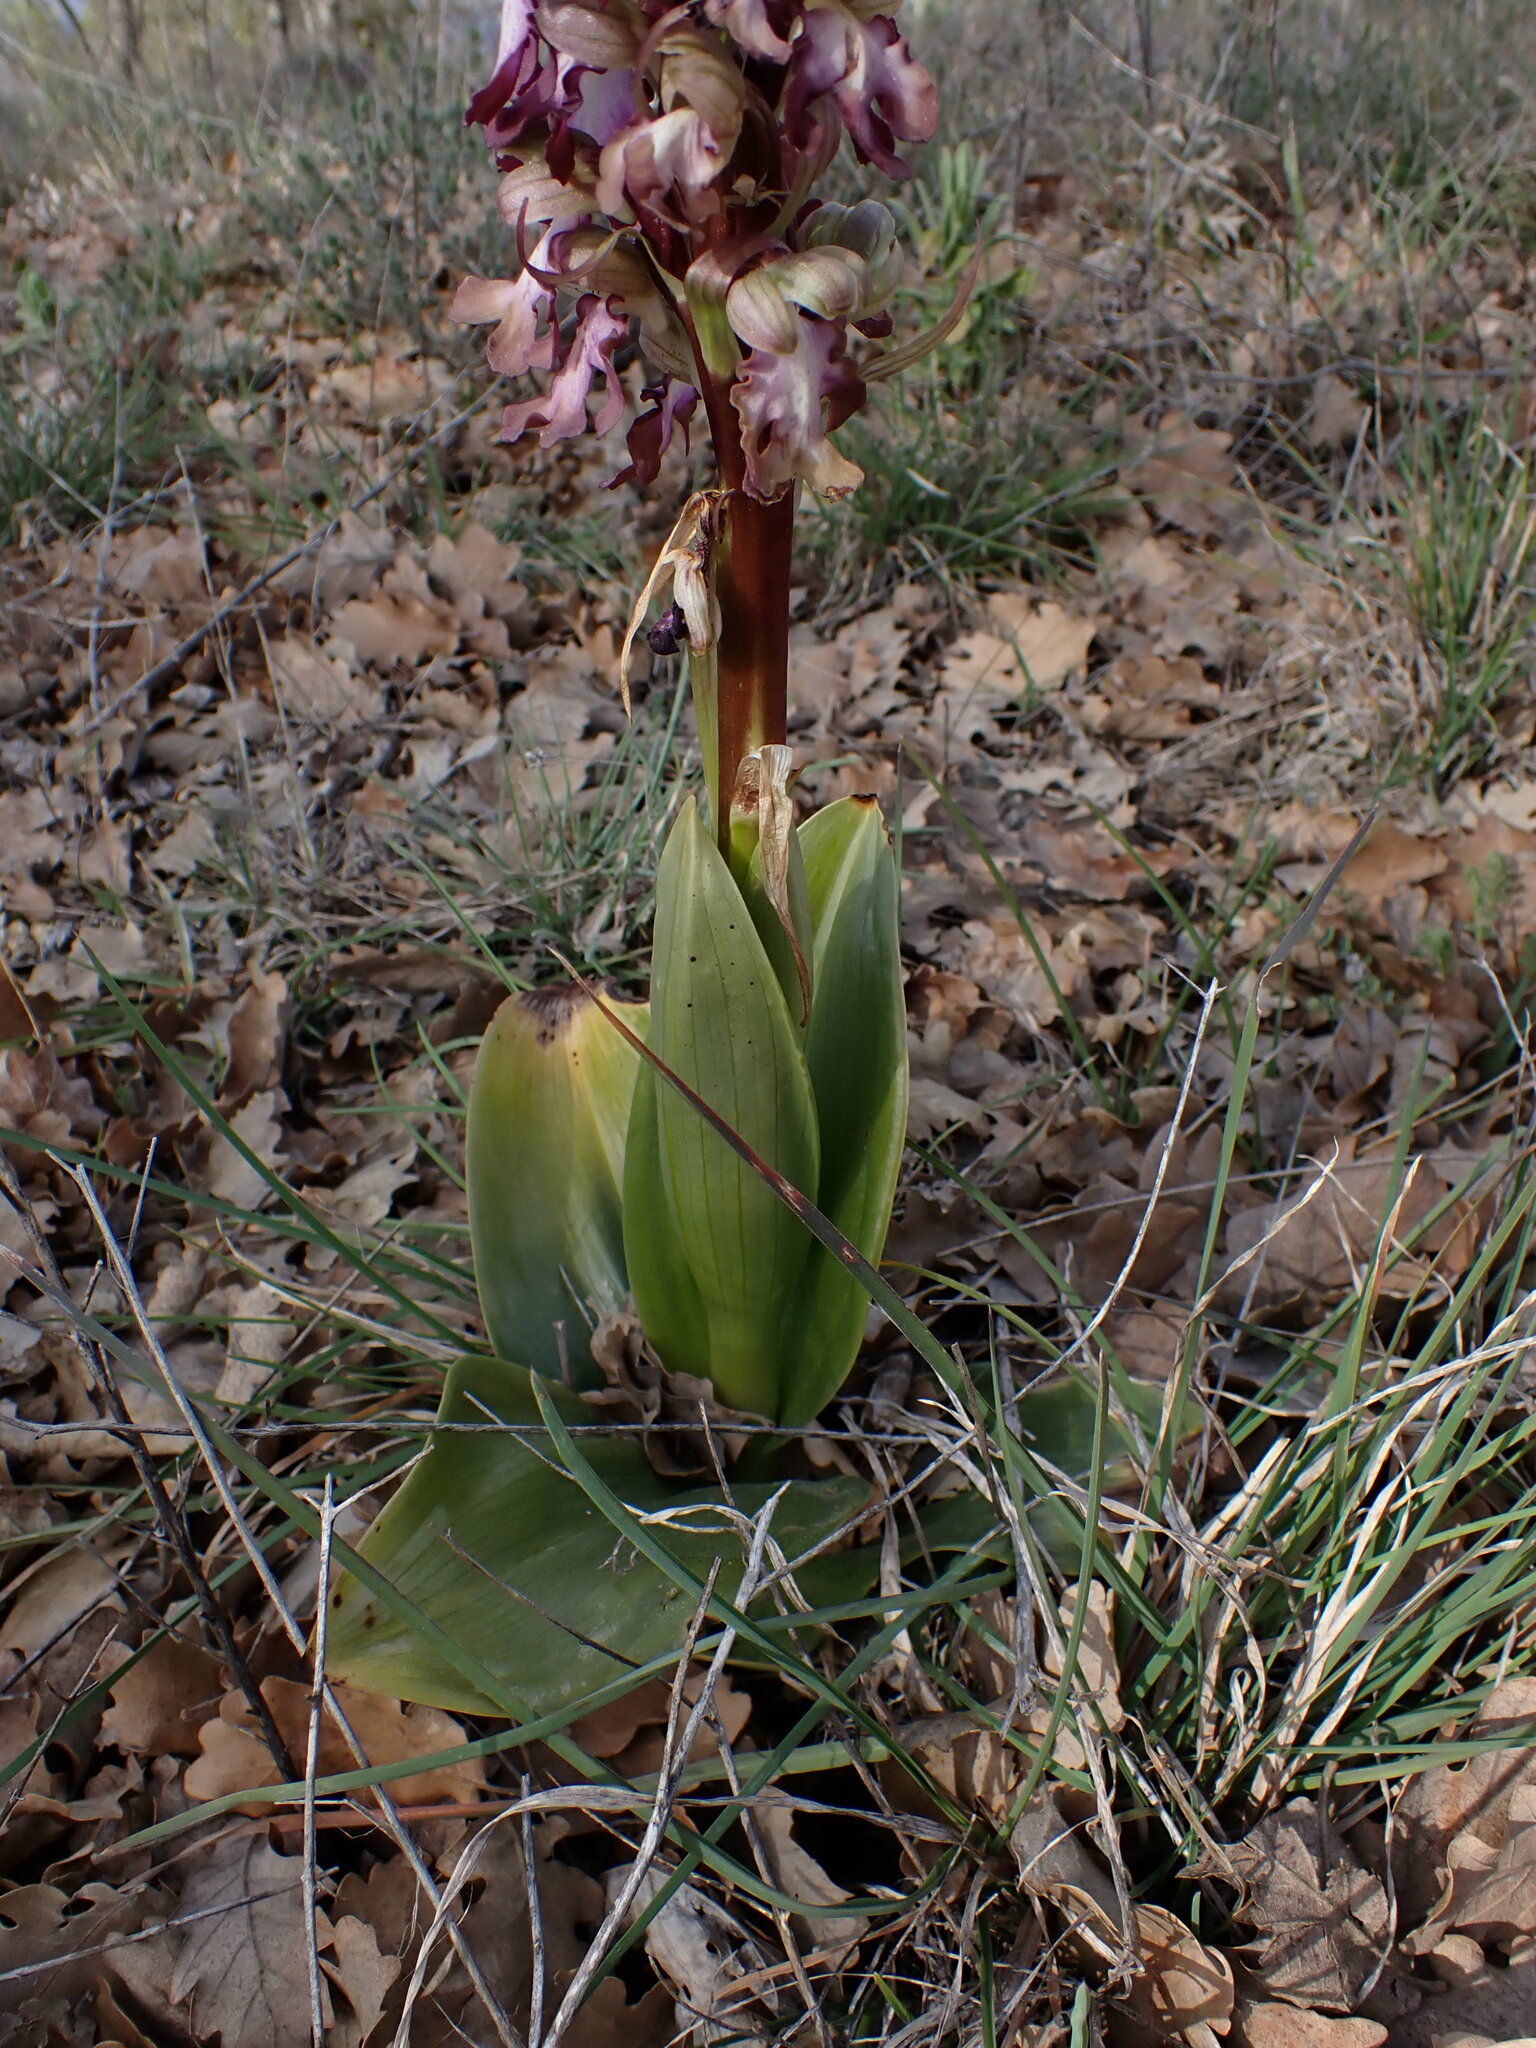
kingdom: Plantae
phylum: Tracheophyta
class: Liliopsida
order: Asparagales
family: Orchidaceae
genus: Himantoglossum
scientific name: Himantoglossum robertianum
